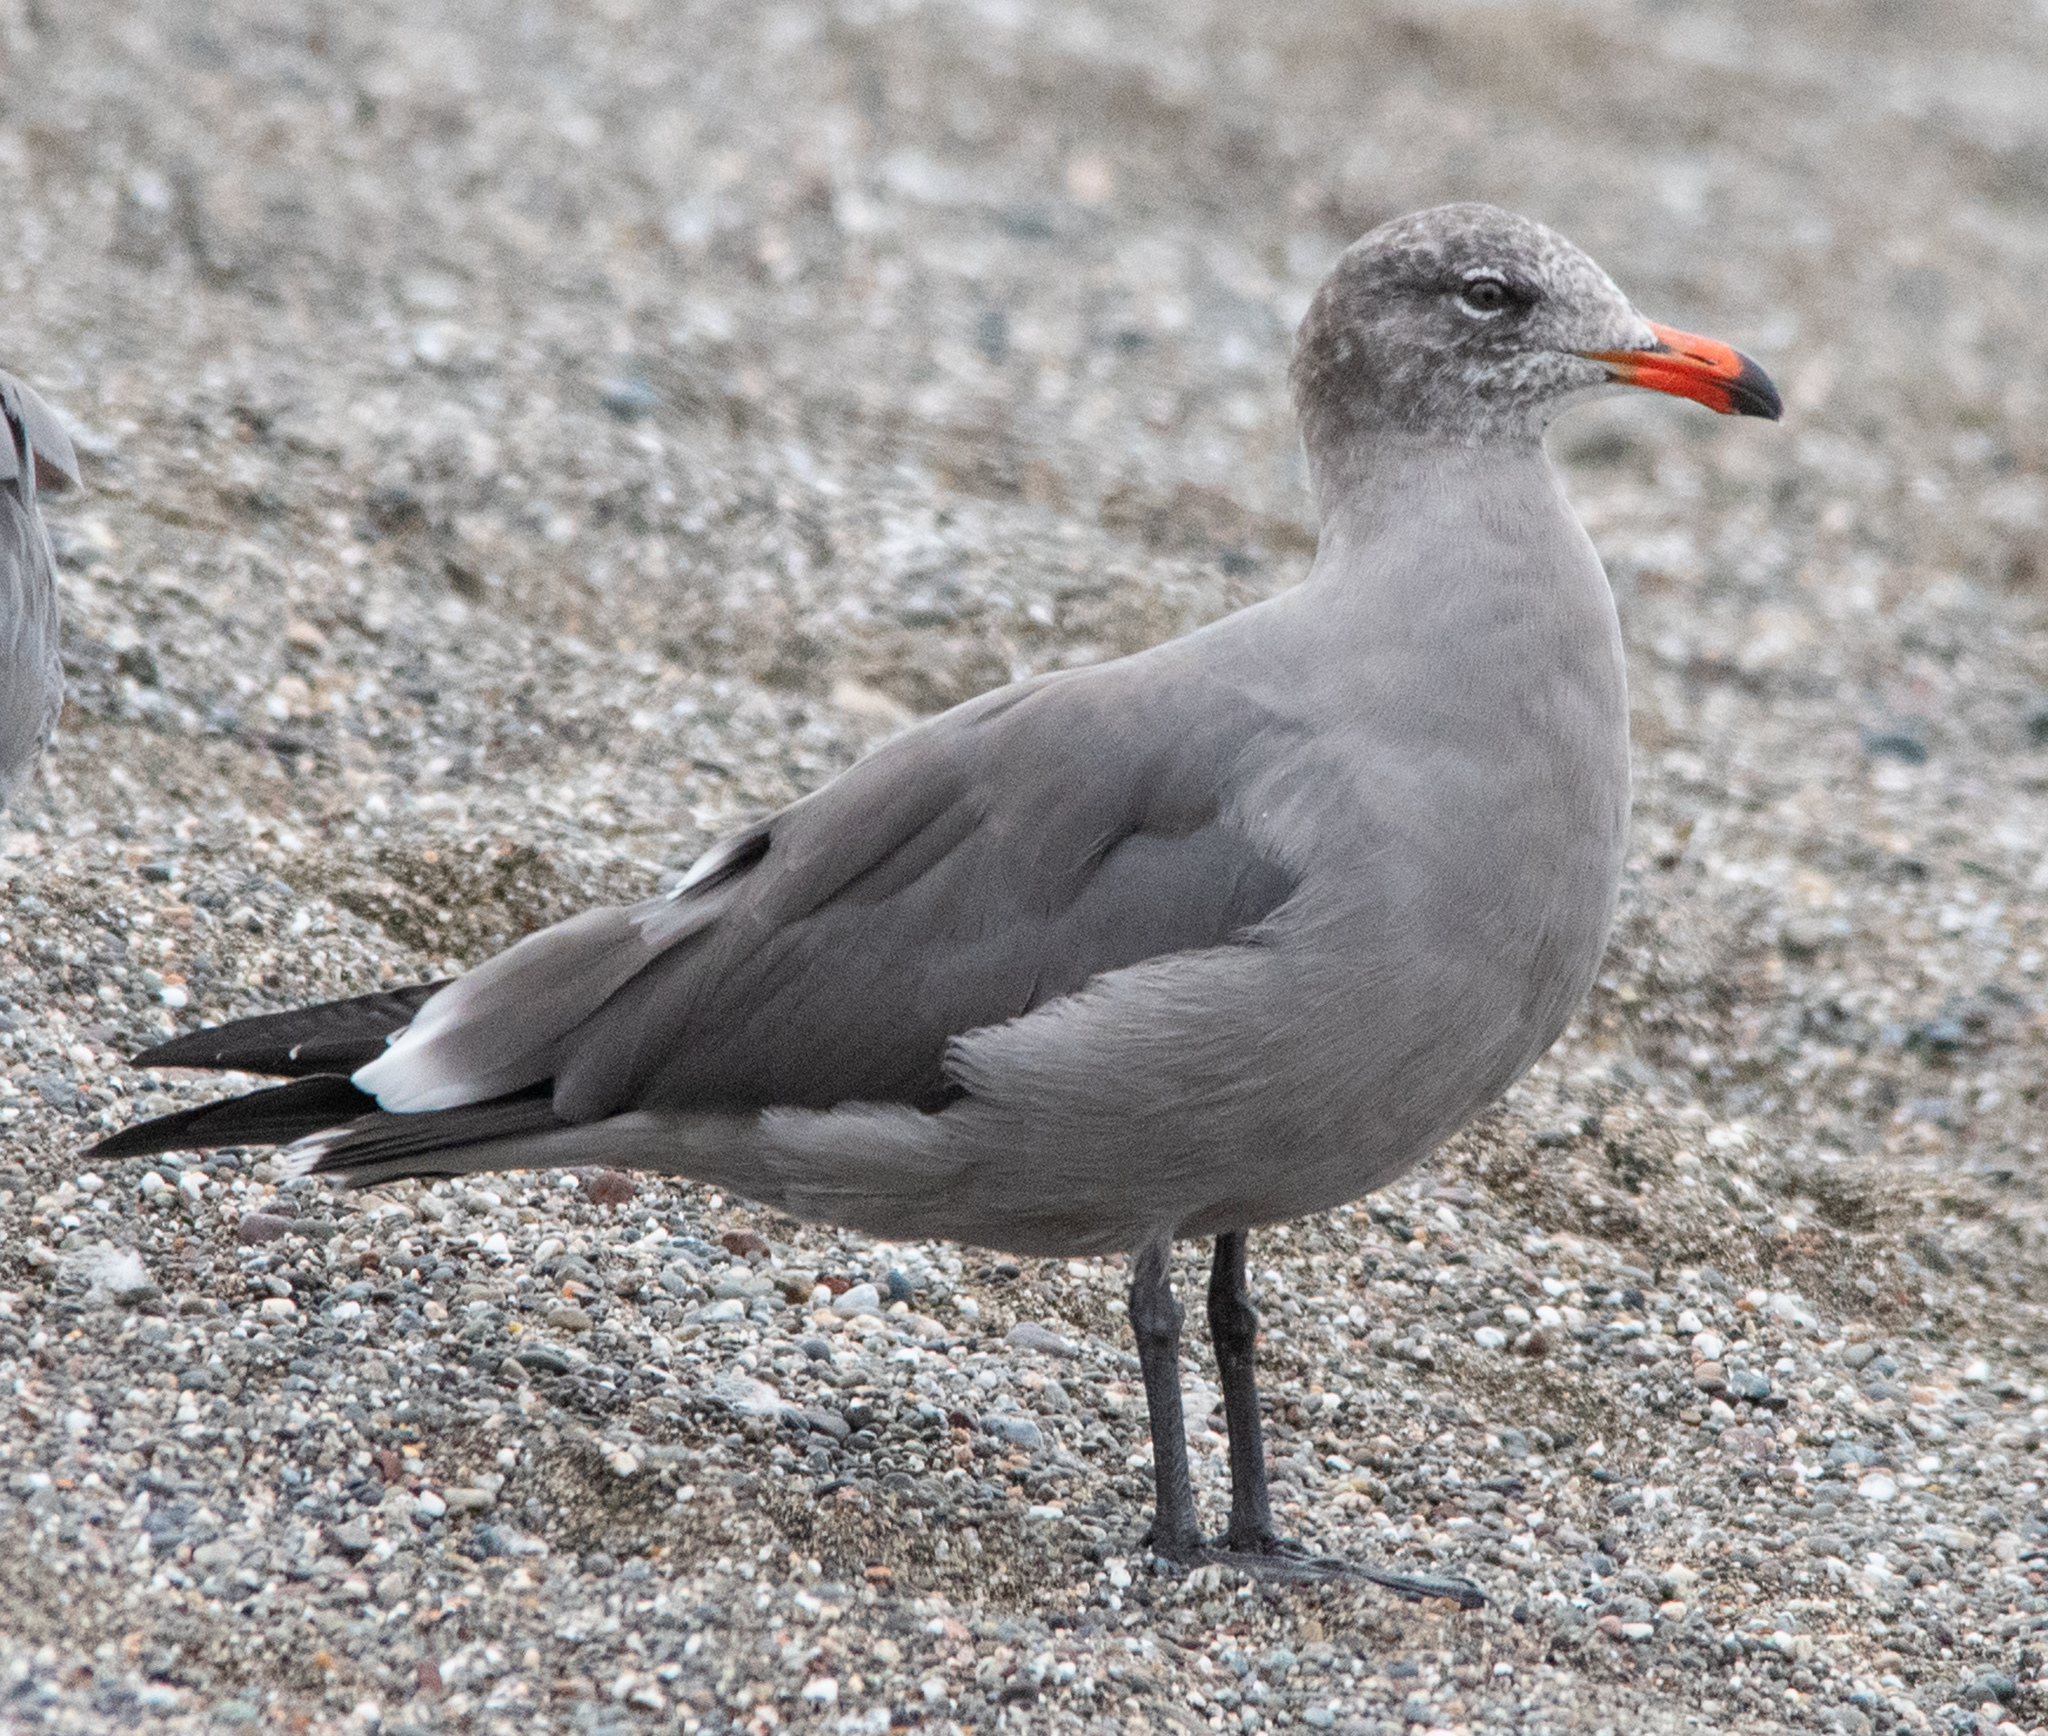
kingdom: Animalia
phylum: Chordata
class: Aves
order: Charadriiformes
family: Laridae
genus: Larus
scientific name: Larus heermanni
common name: Heermann's gull
